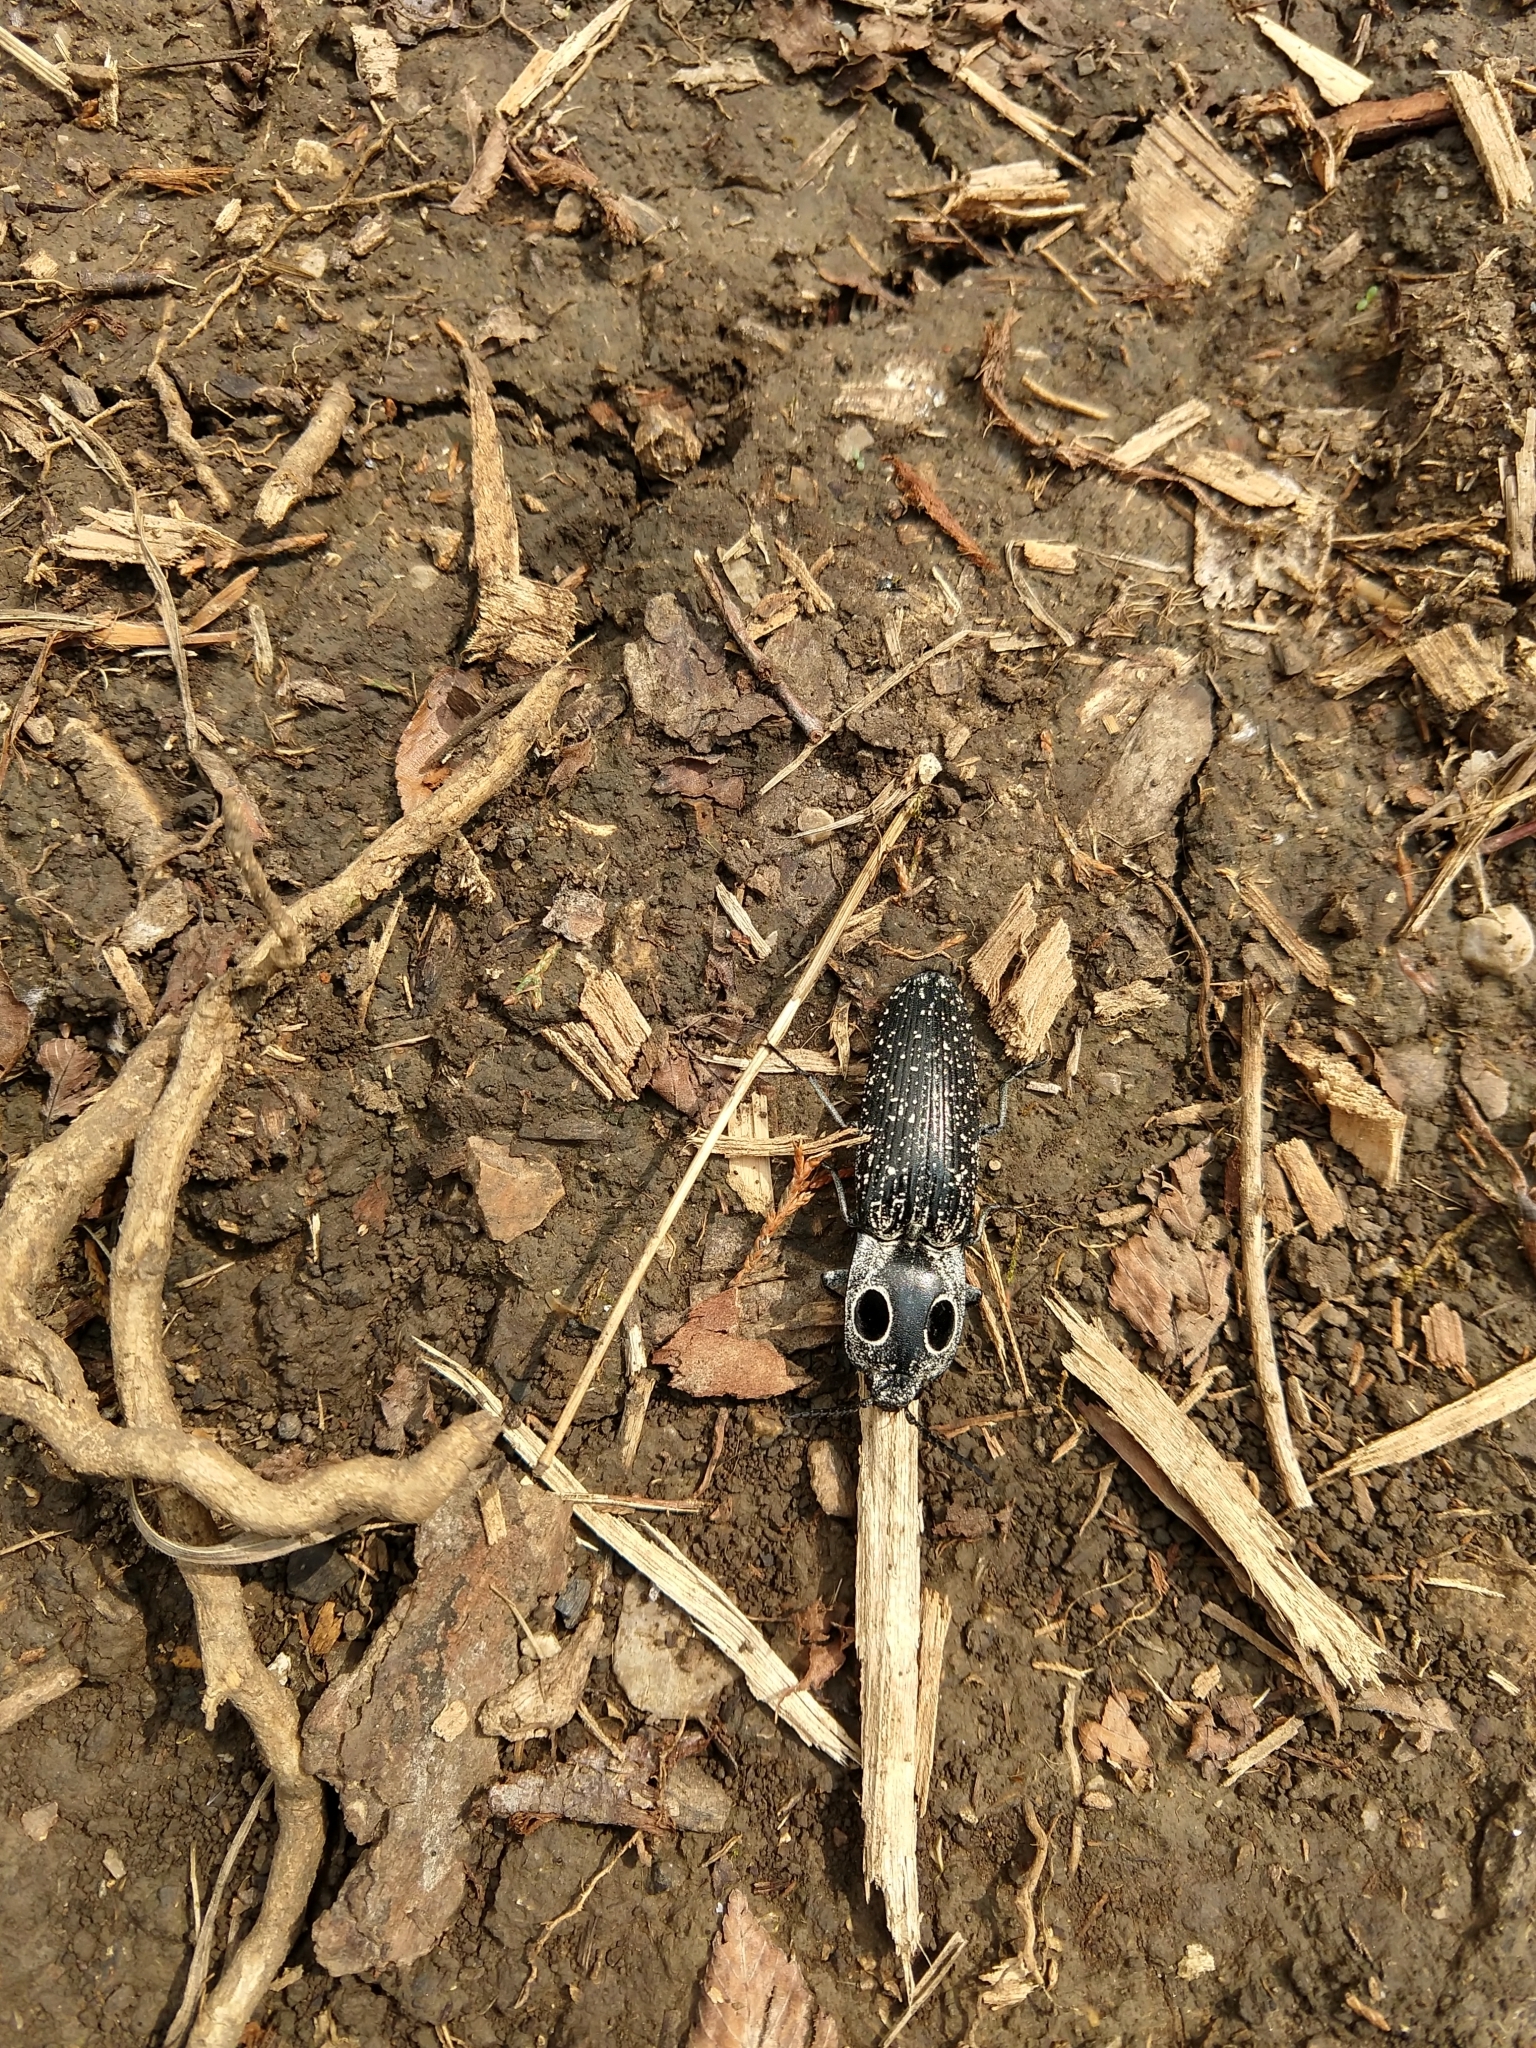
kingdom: Animalia
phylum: Arthropoda
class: Insecta
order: Coleoptera
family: Elateridae
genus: Alaus
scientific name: Alaus oculatus
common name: Eastern eyed click beetle
